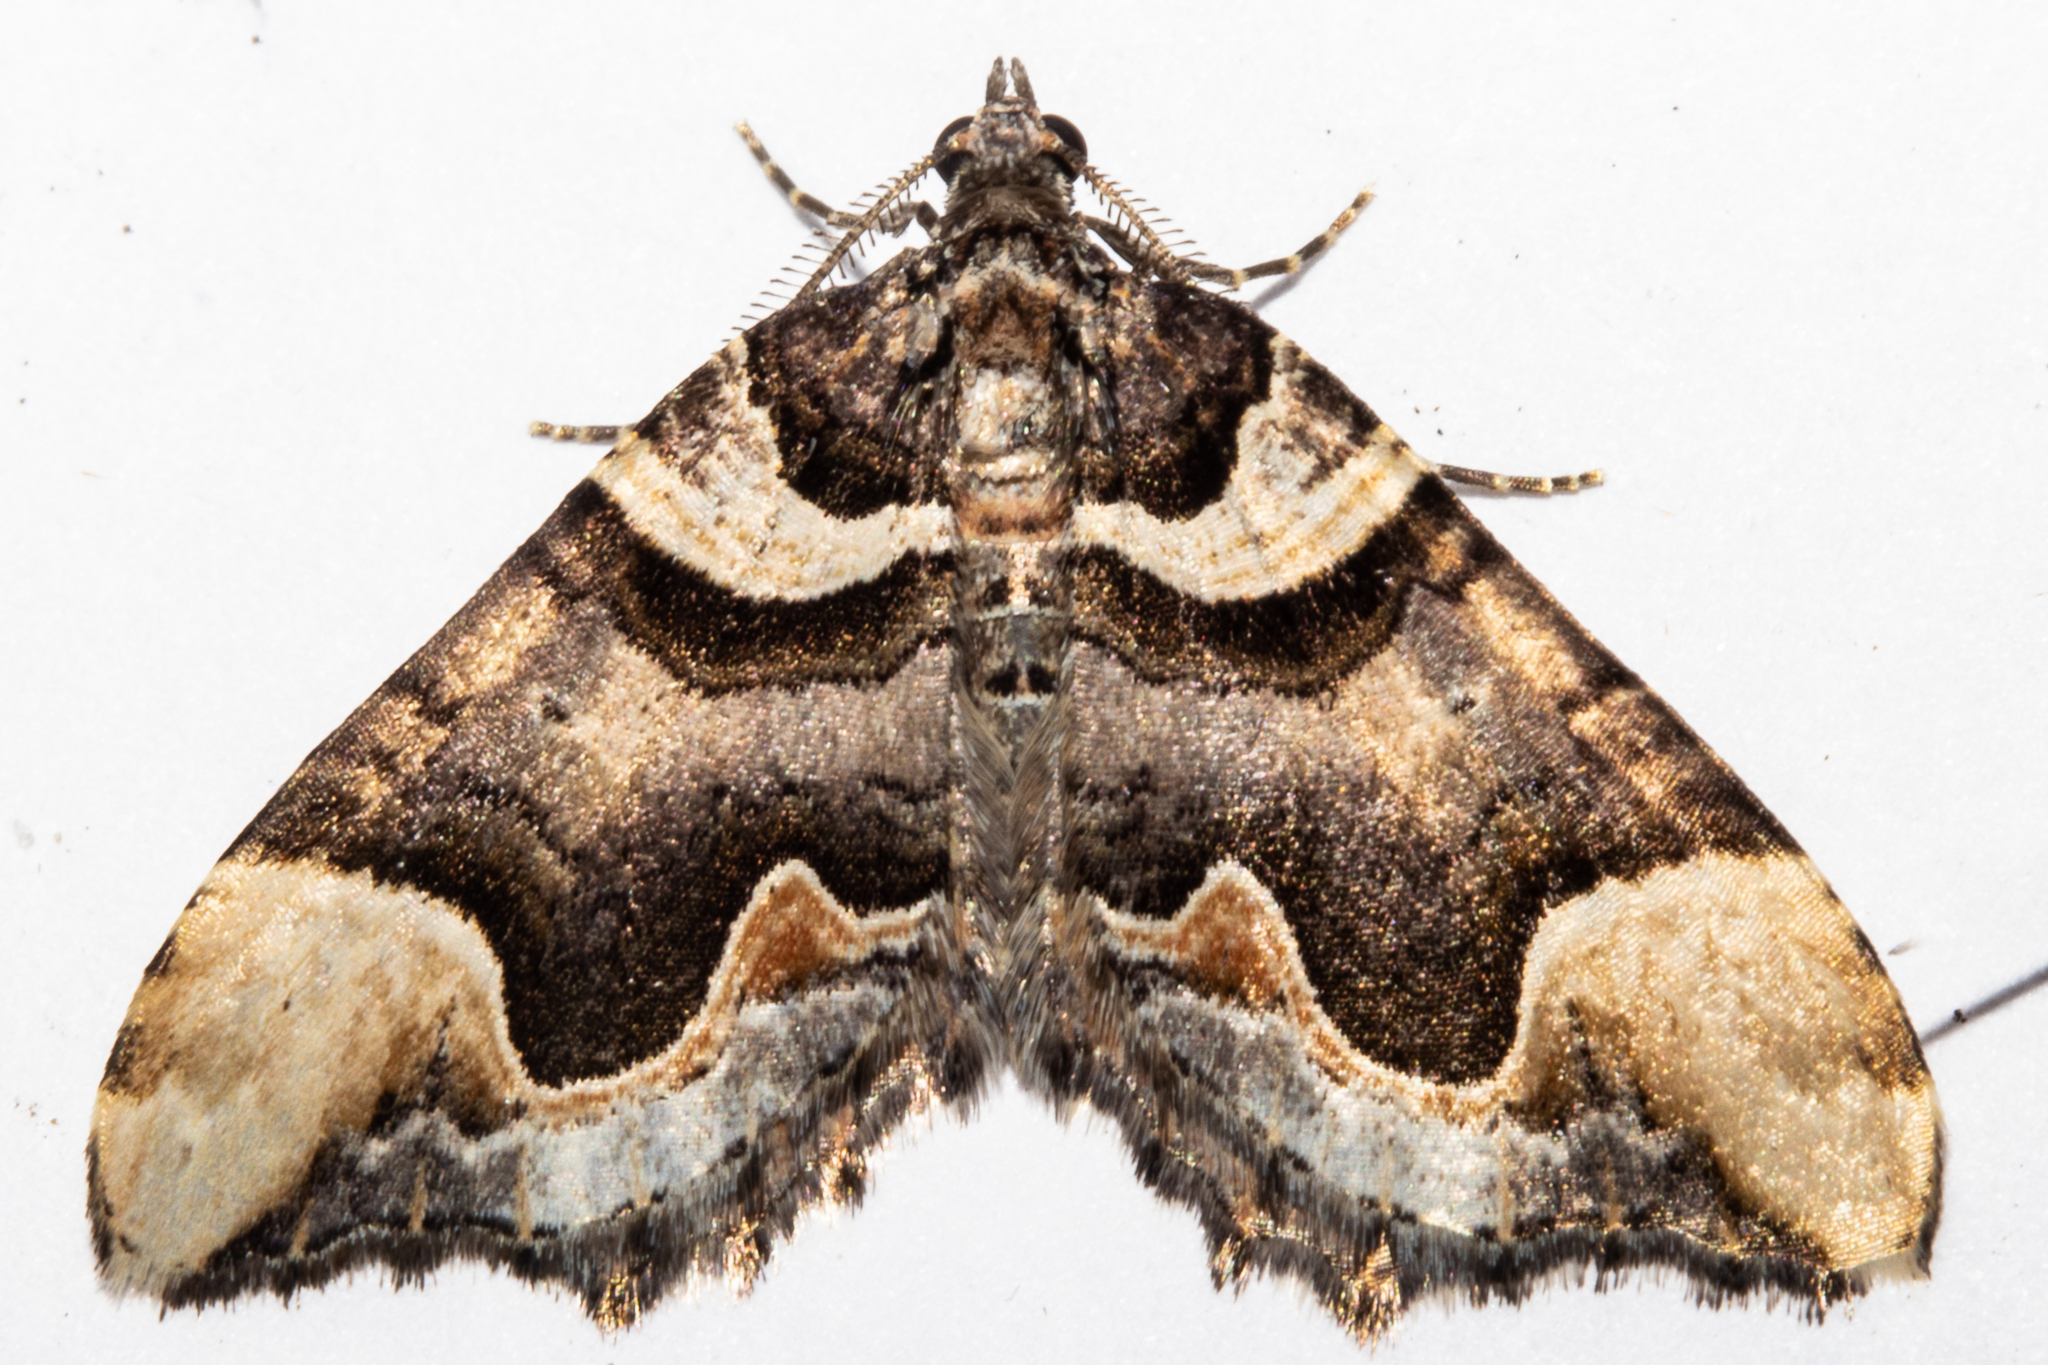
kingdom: Animalia
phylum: Arthropoda
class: Insecta
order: Lepidoptera
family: Geometridae
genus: Asaphodes
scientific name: Asaphodes chlamydota
